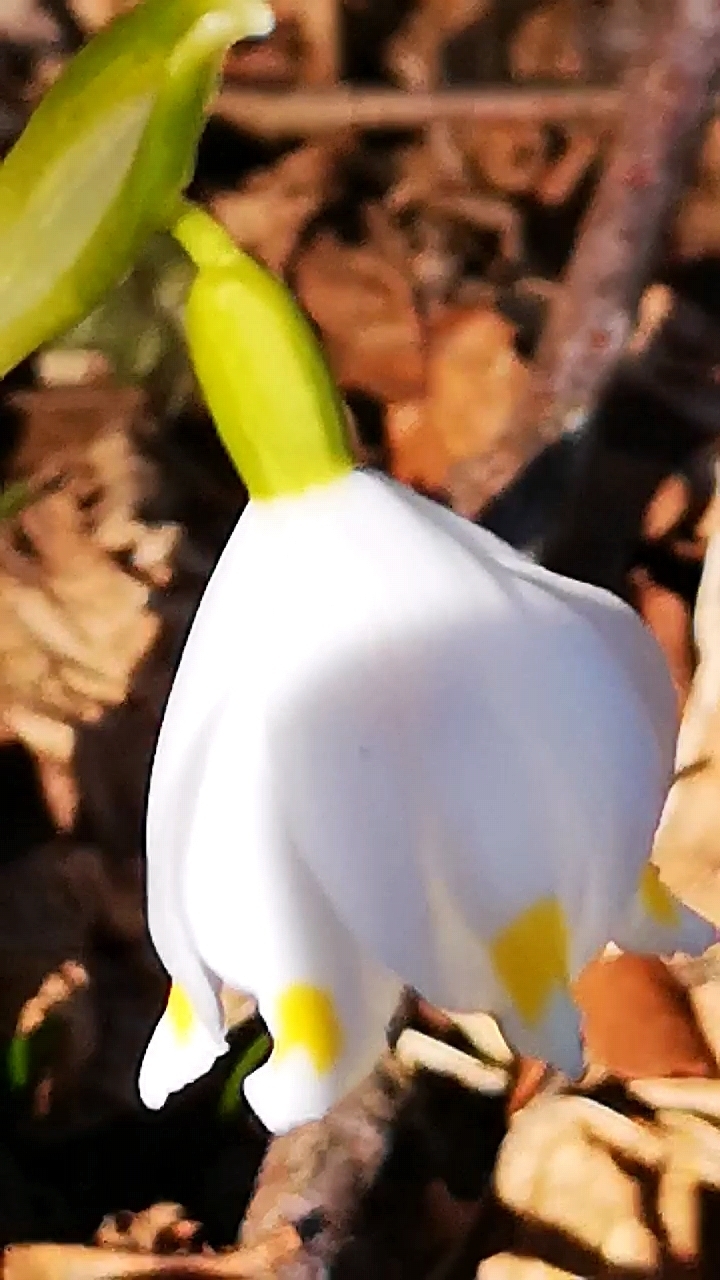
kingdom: Plantae
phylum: Tracheophyta
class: Liliopsida
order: Asparagales
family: Amaryllidaceae
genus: Leucojum
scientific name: Leucojum vernum
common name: Spring snowflake
